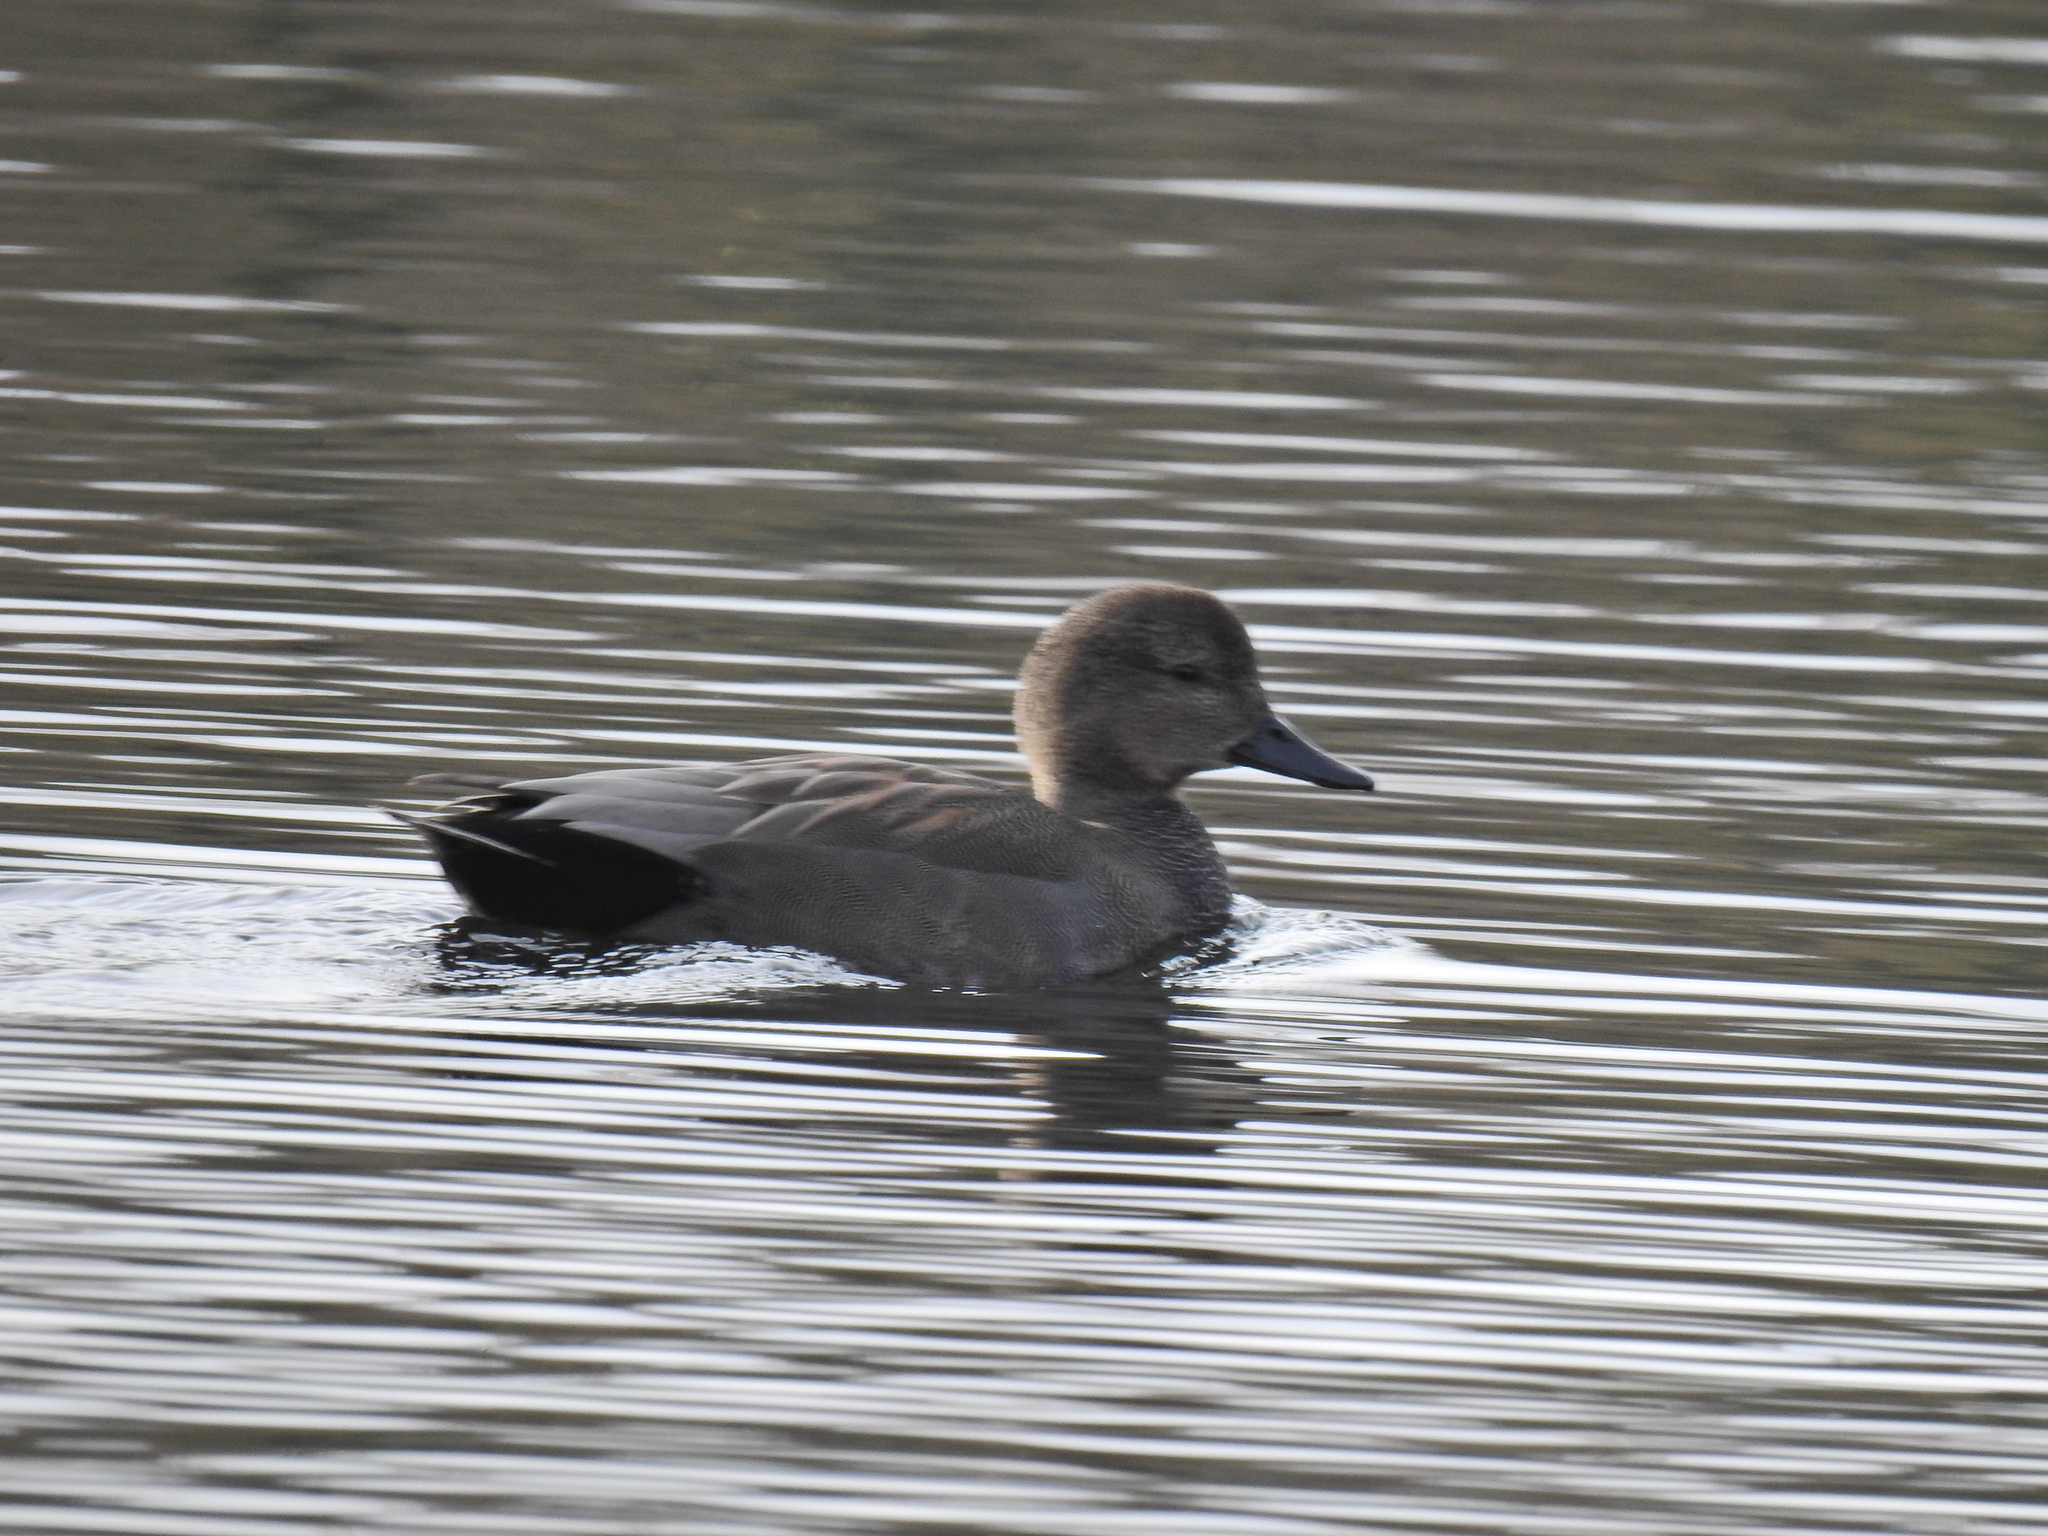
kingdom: Animalia
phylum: Chordata
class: Aves
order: Anseriformes
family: Anatidae
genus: Mareca
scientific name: Mareca strepera
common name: Gadwall
